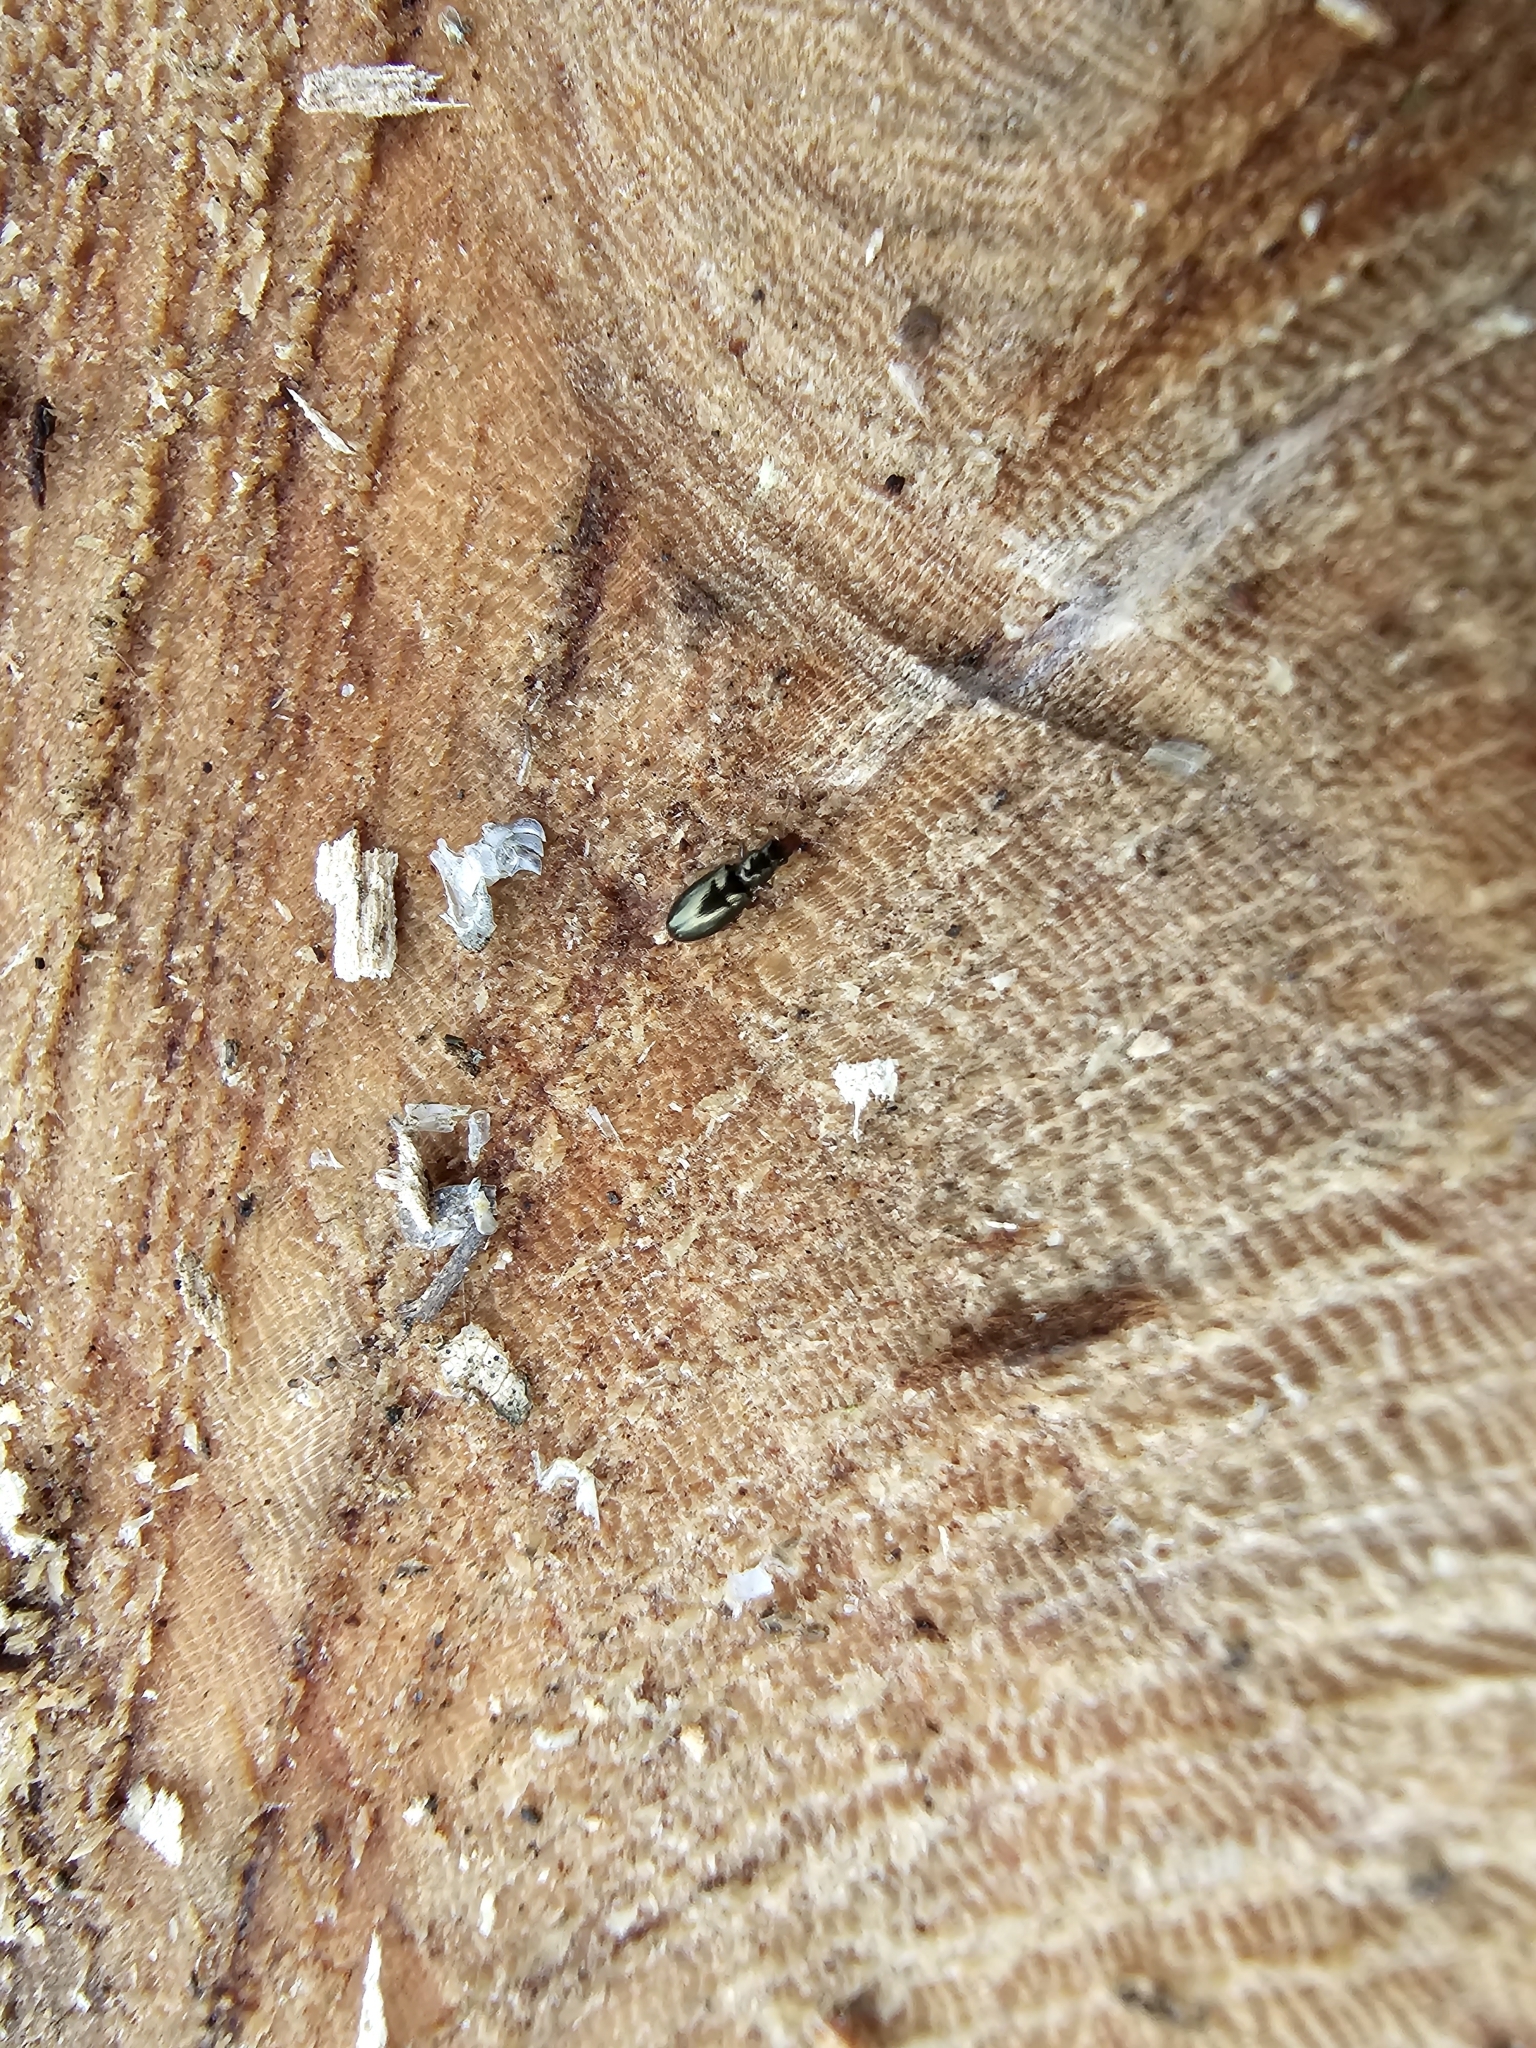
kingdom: Animalia
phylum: Arthropoda
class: Insecta
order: Coleoptera
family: Salpingidae
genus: Salpingus
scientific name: Salpingus planirostris
